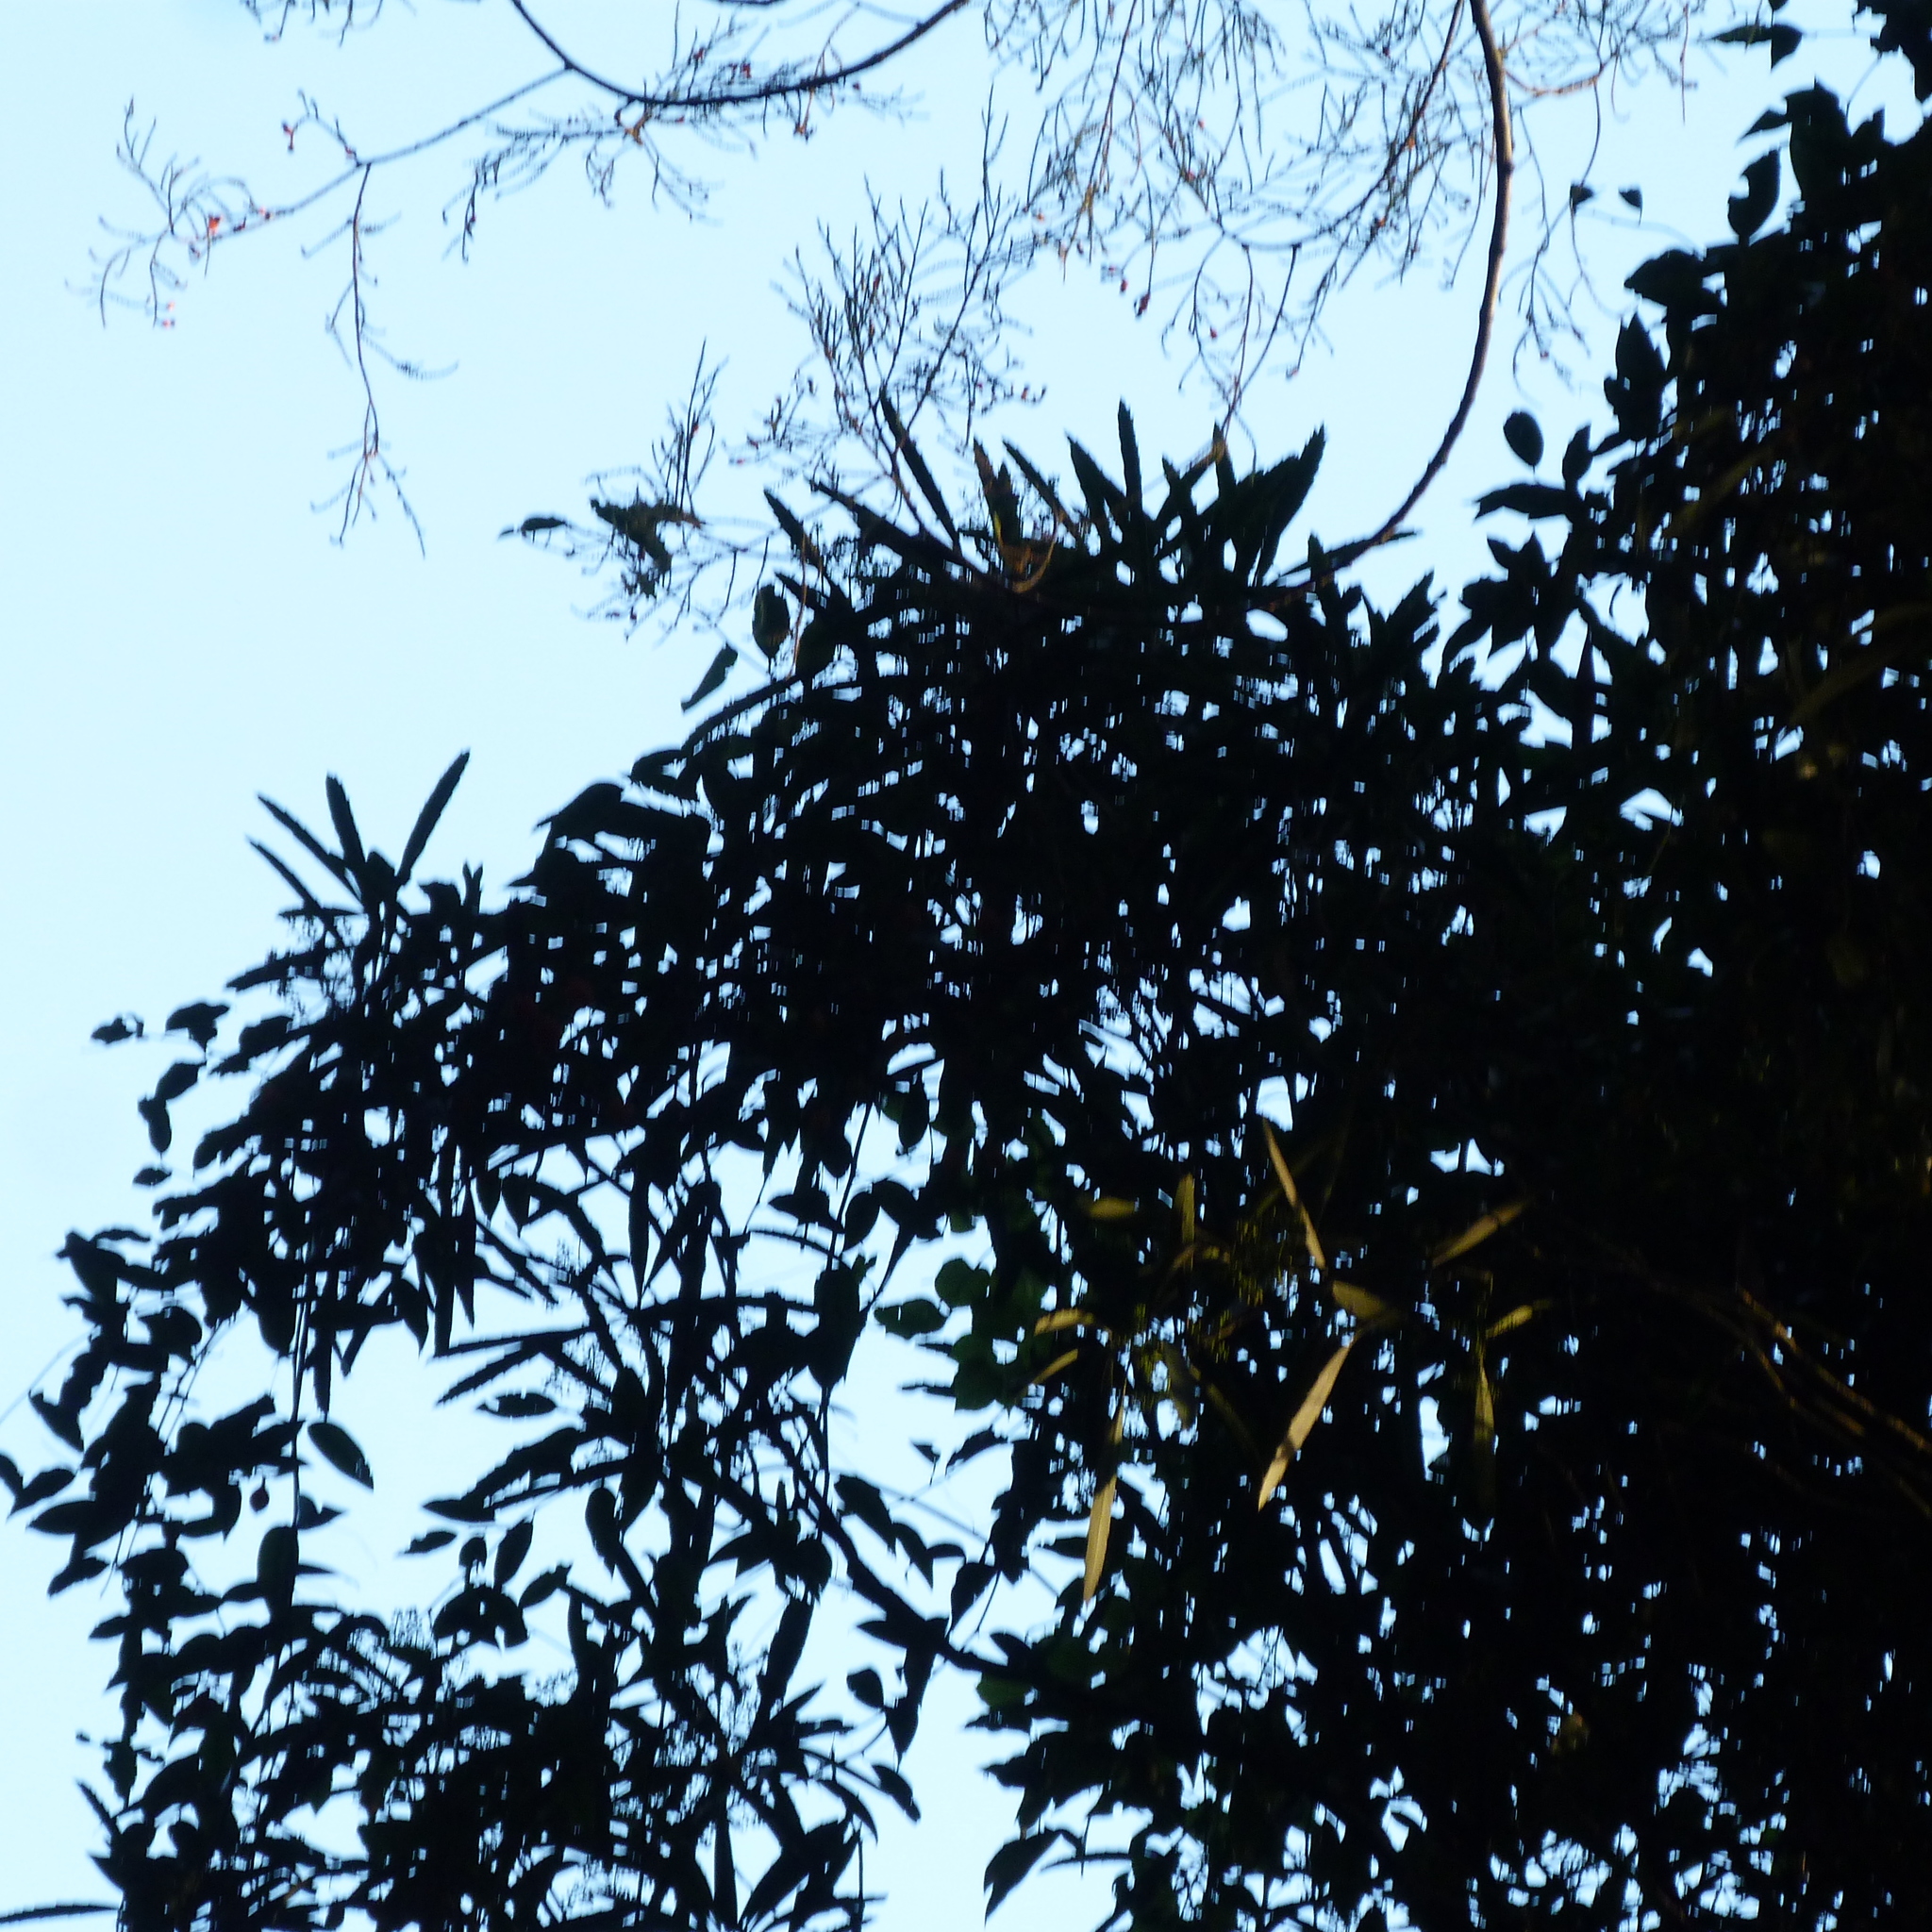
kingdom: Plantae
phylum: Tracheophyta
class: Magnoliopsida
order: Apiales
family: Araliaceae
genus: Pseudopanax
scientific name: Pseudopanax crassifolius
